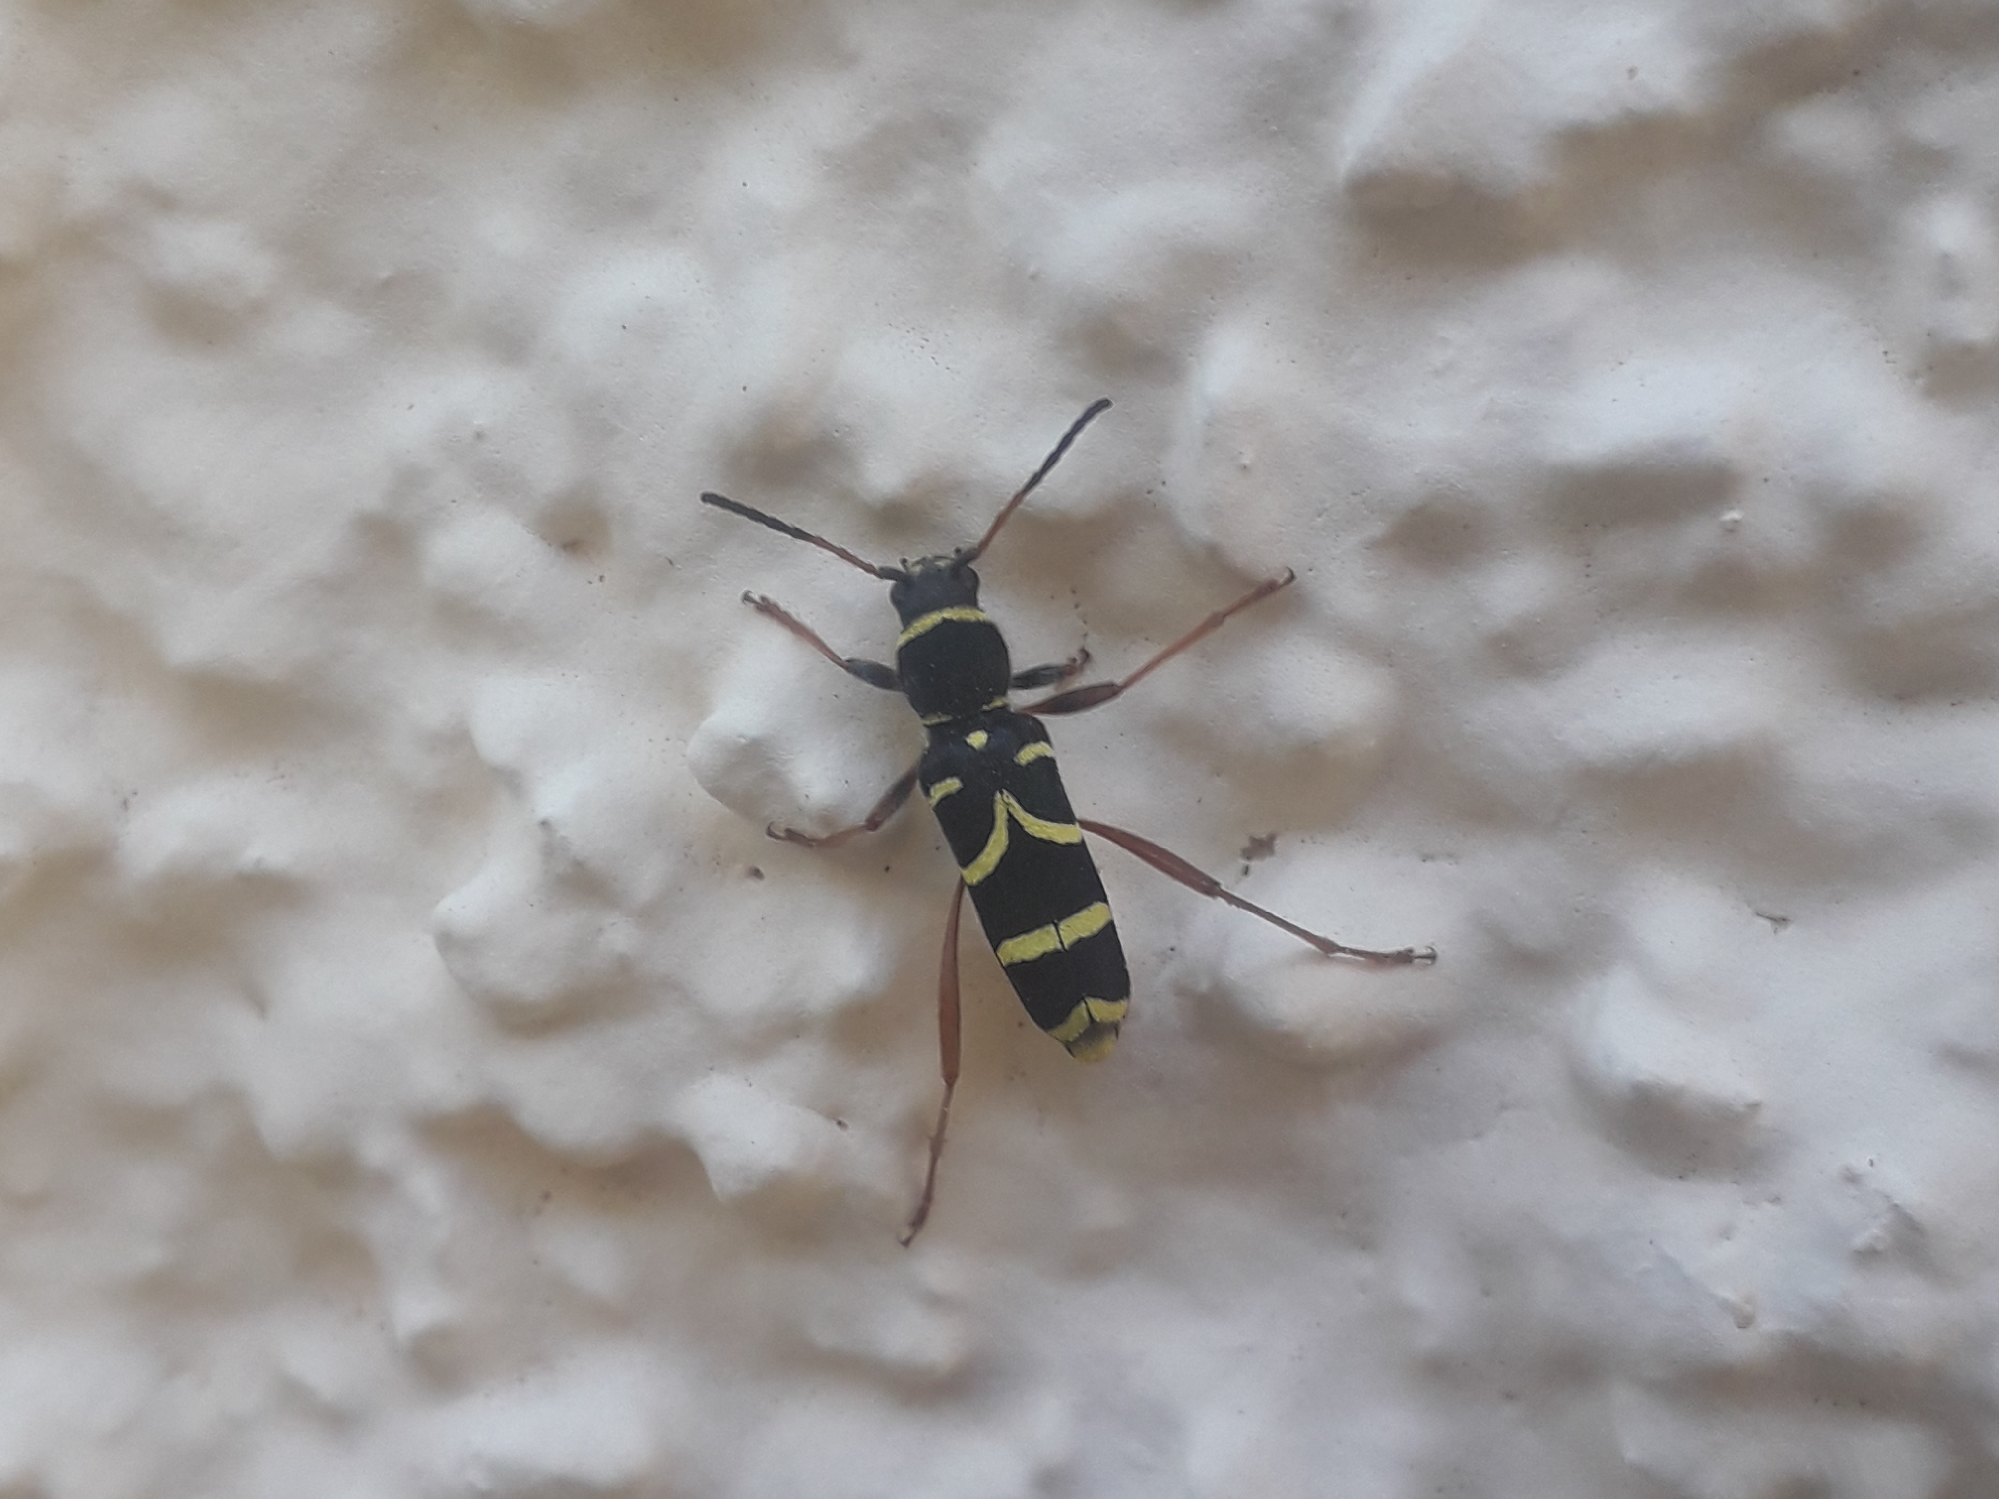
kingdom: Animalia
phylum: Arthropoda
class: Insecta
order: Coleoptera
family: Cerambycidae
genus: Clytus
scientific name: Clytus arietis
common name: Wasp beetle
